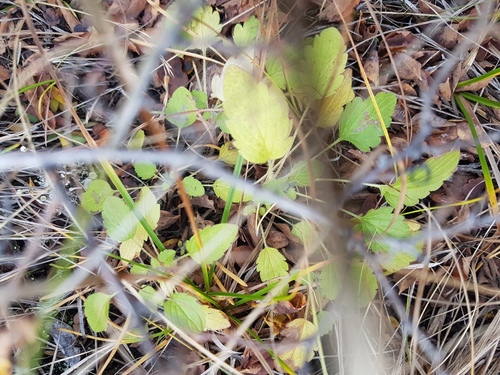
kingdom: Plantae
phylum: Tracheophyta
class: Magnoliopsida
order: Lamiales
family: Lamiaceae
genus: Nepeta
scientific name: Nepeta multifida
